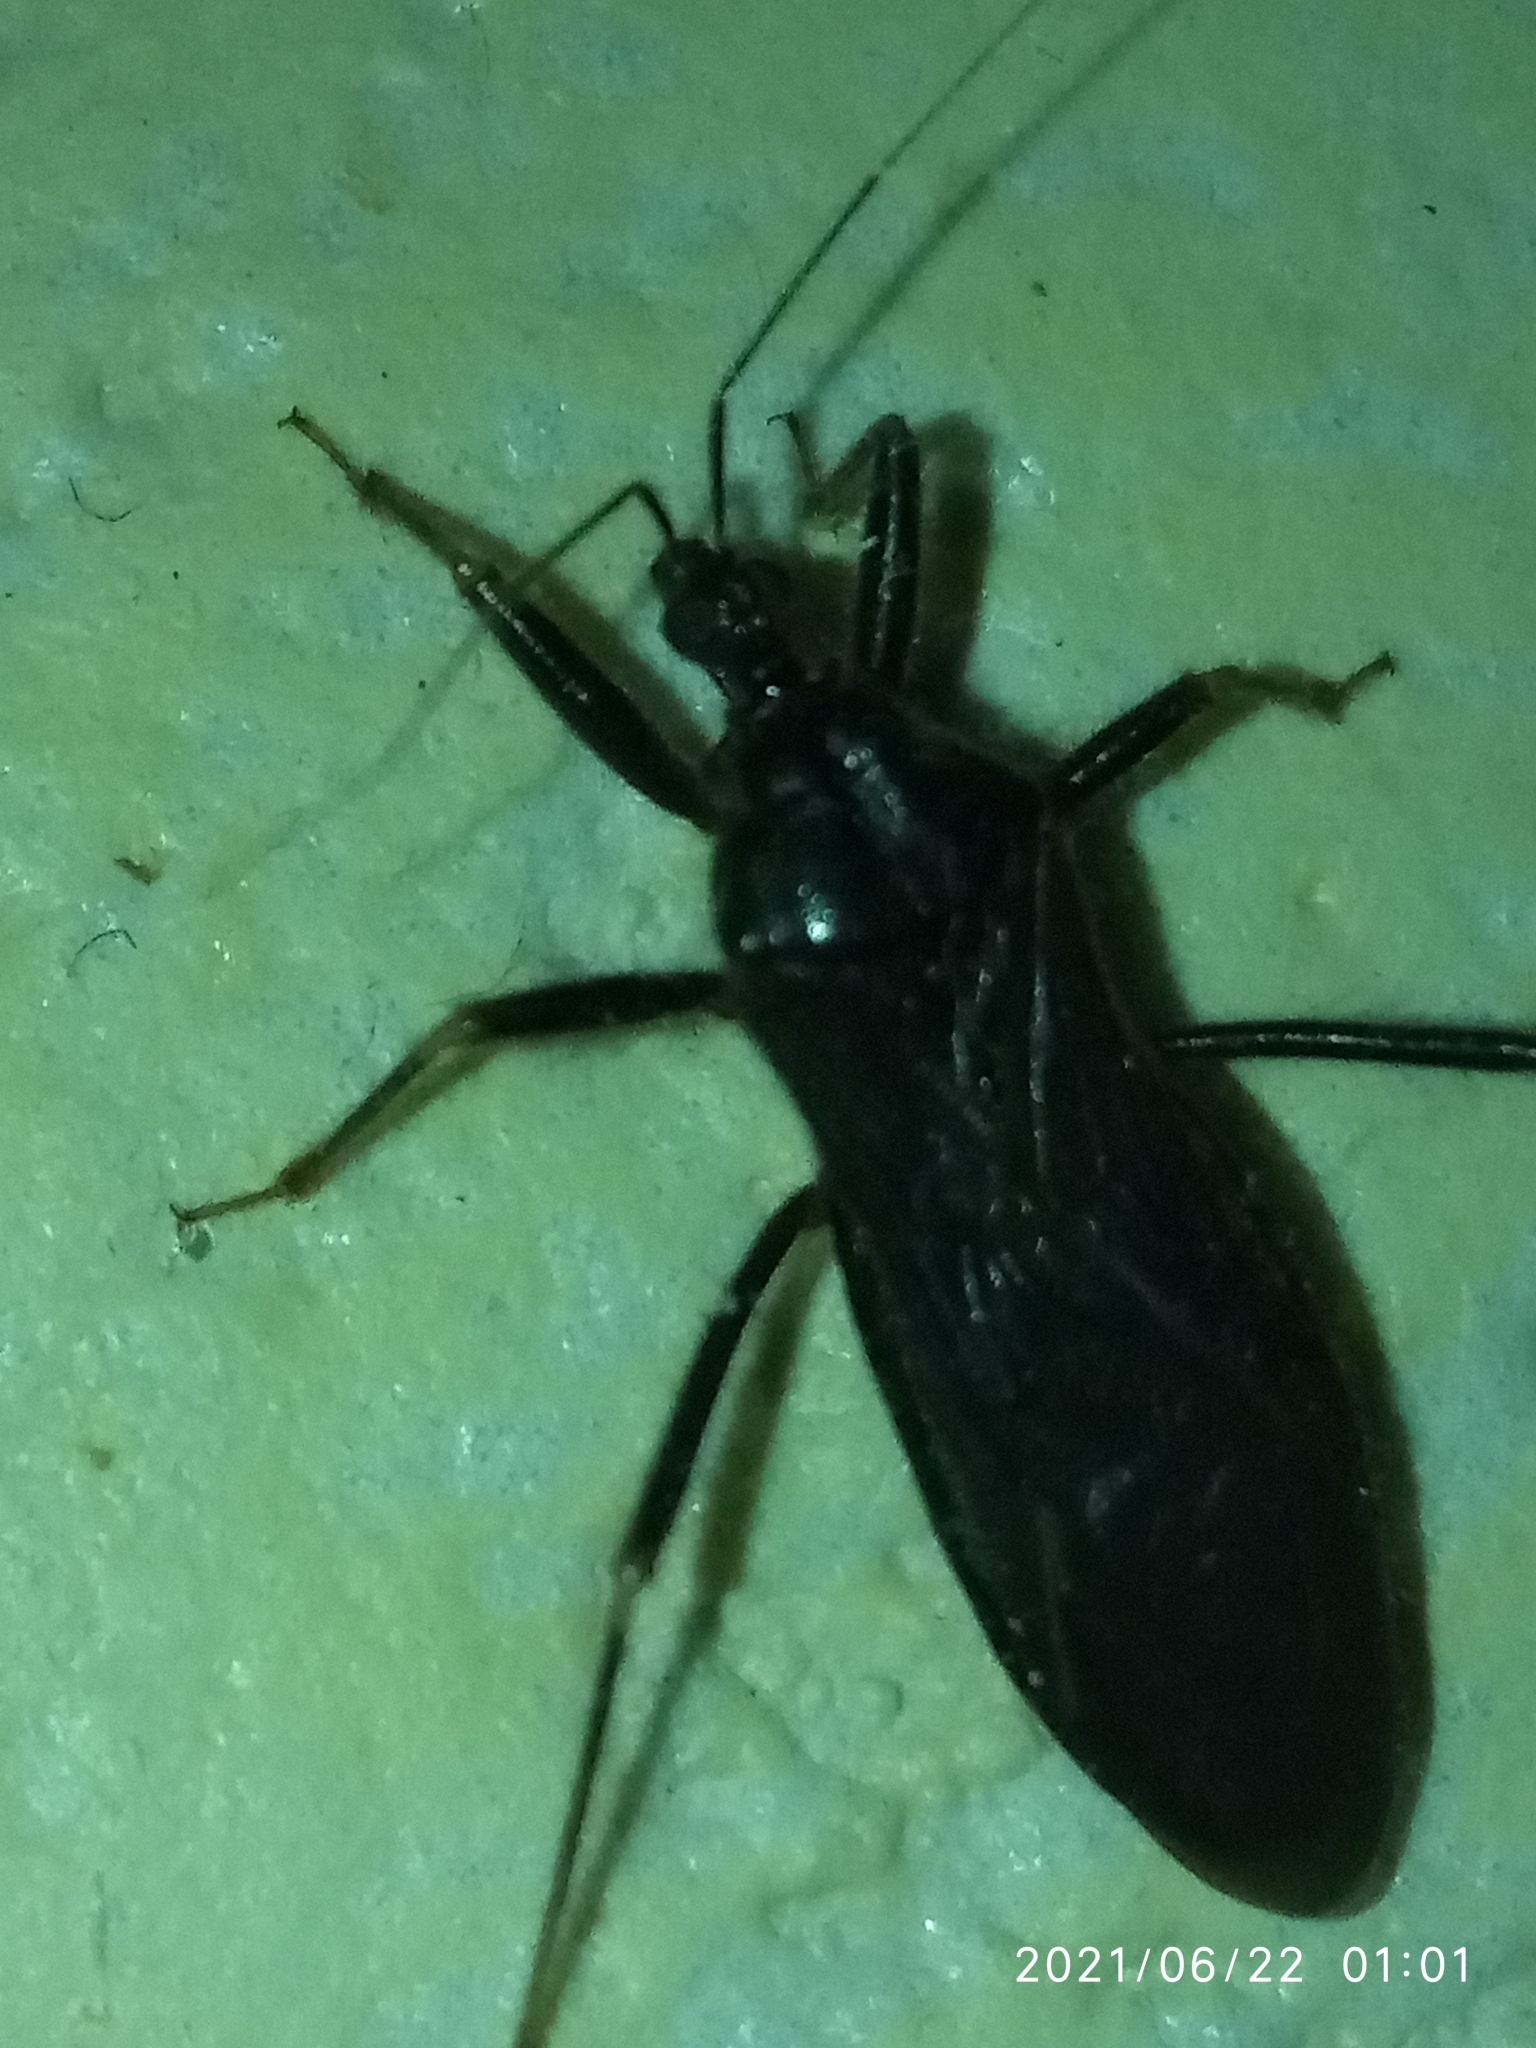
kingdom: Animalia
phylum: Arthropoda
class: Insecta
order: Hemiptera
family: Reduviidae
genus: Reduvius
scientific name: Reduvius personatus
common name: Masked hunter
